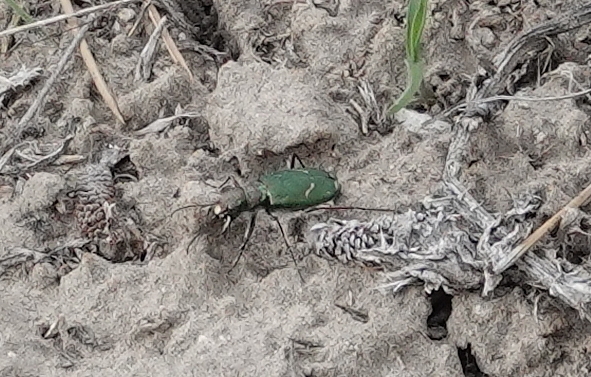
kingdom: Animalia
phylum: Arthropoda
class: Insecta
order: Coleoptera
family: Carabidae
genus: Cicindela
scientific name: Cicindela purpurea
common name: Cow path tiger beetle
